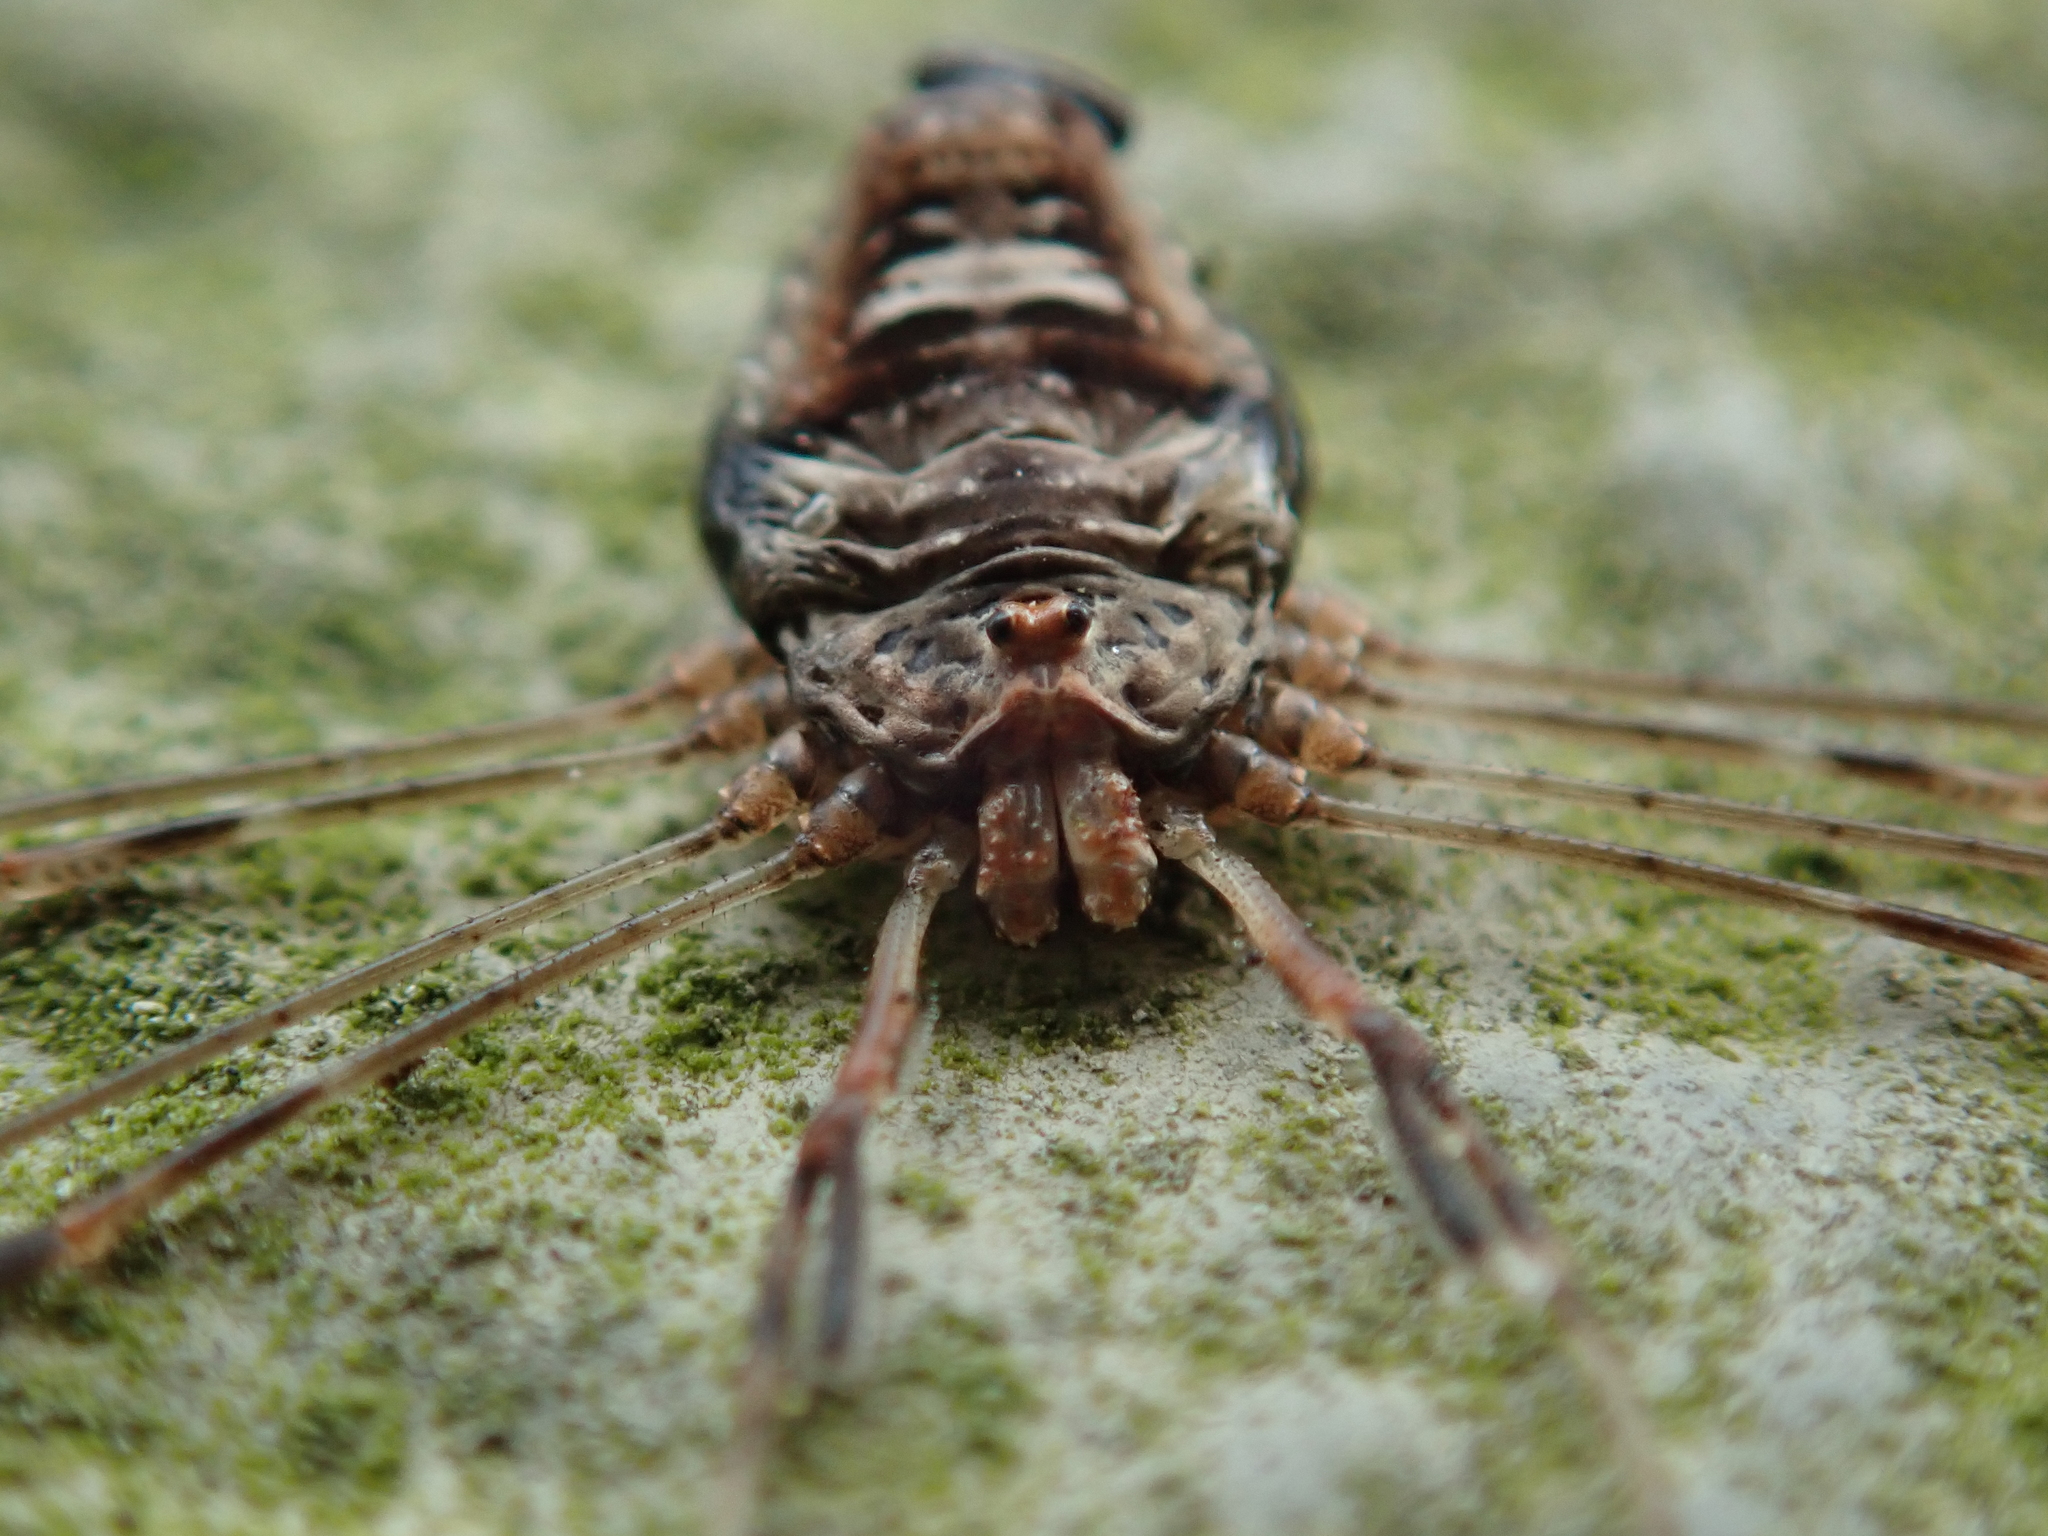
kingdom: Animalia
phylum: Arthropoda
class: Arachnida
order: Opiliones
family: Phalangiidae
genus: Dicranopalpus
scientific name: Dicranopalpus ramosus
